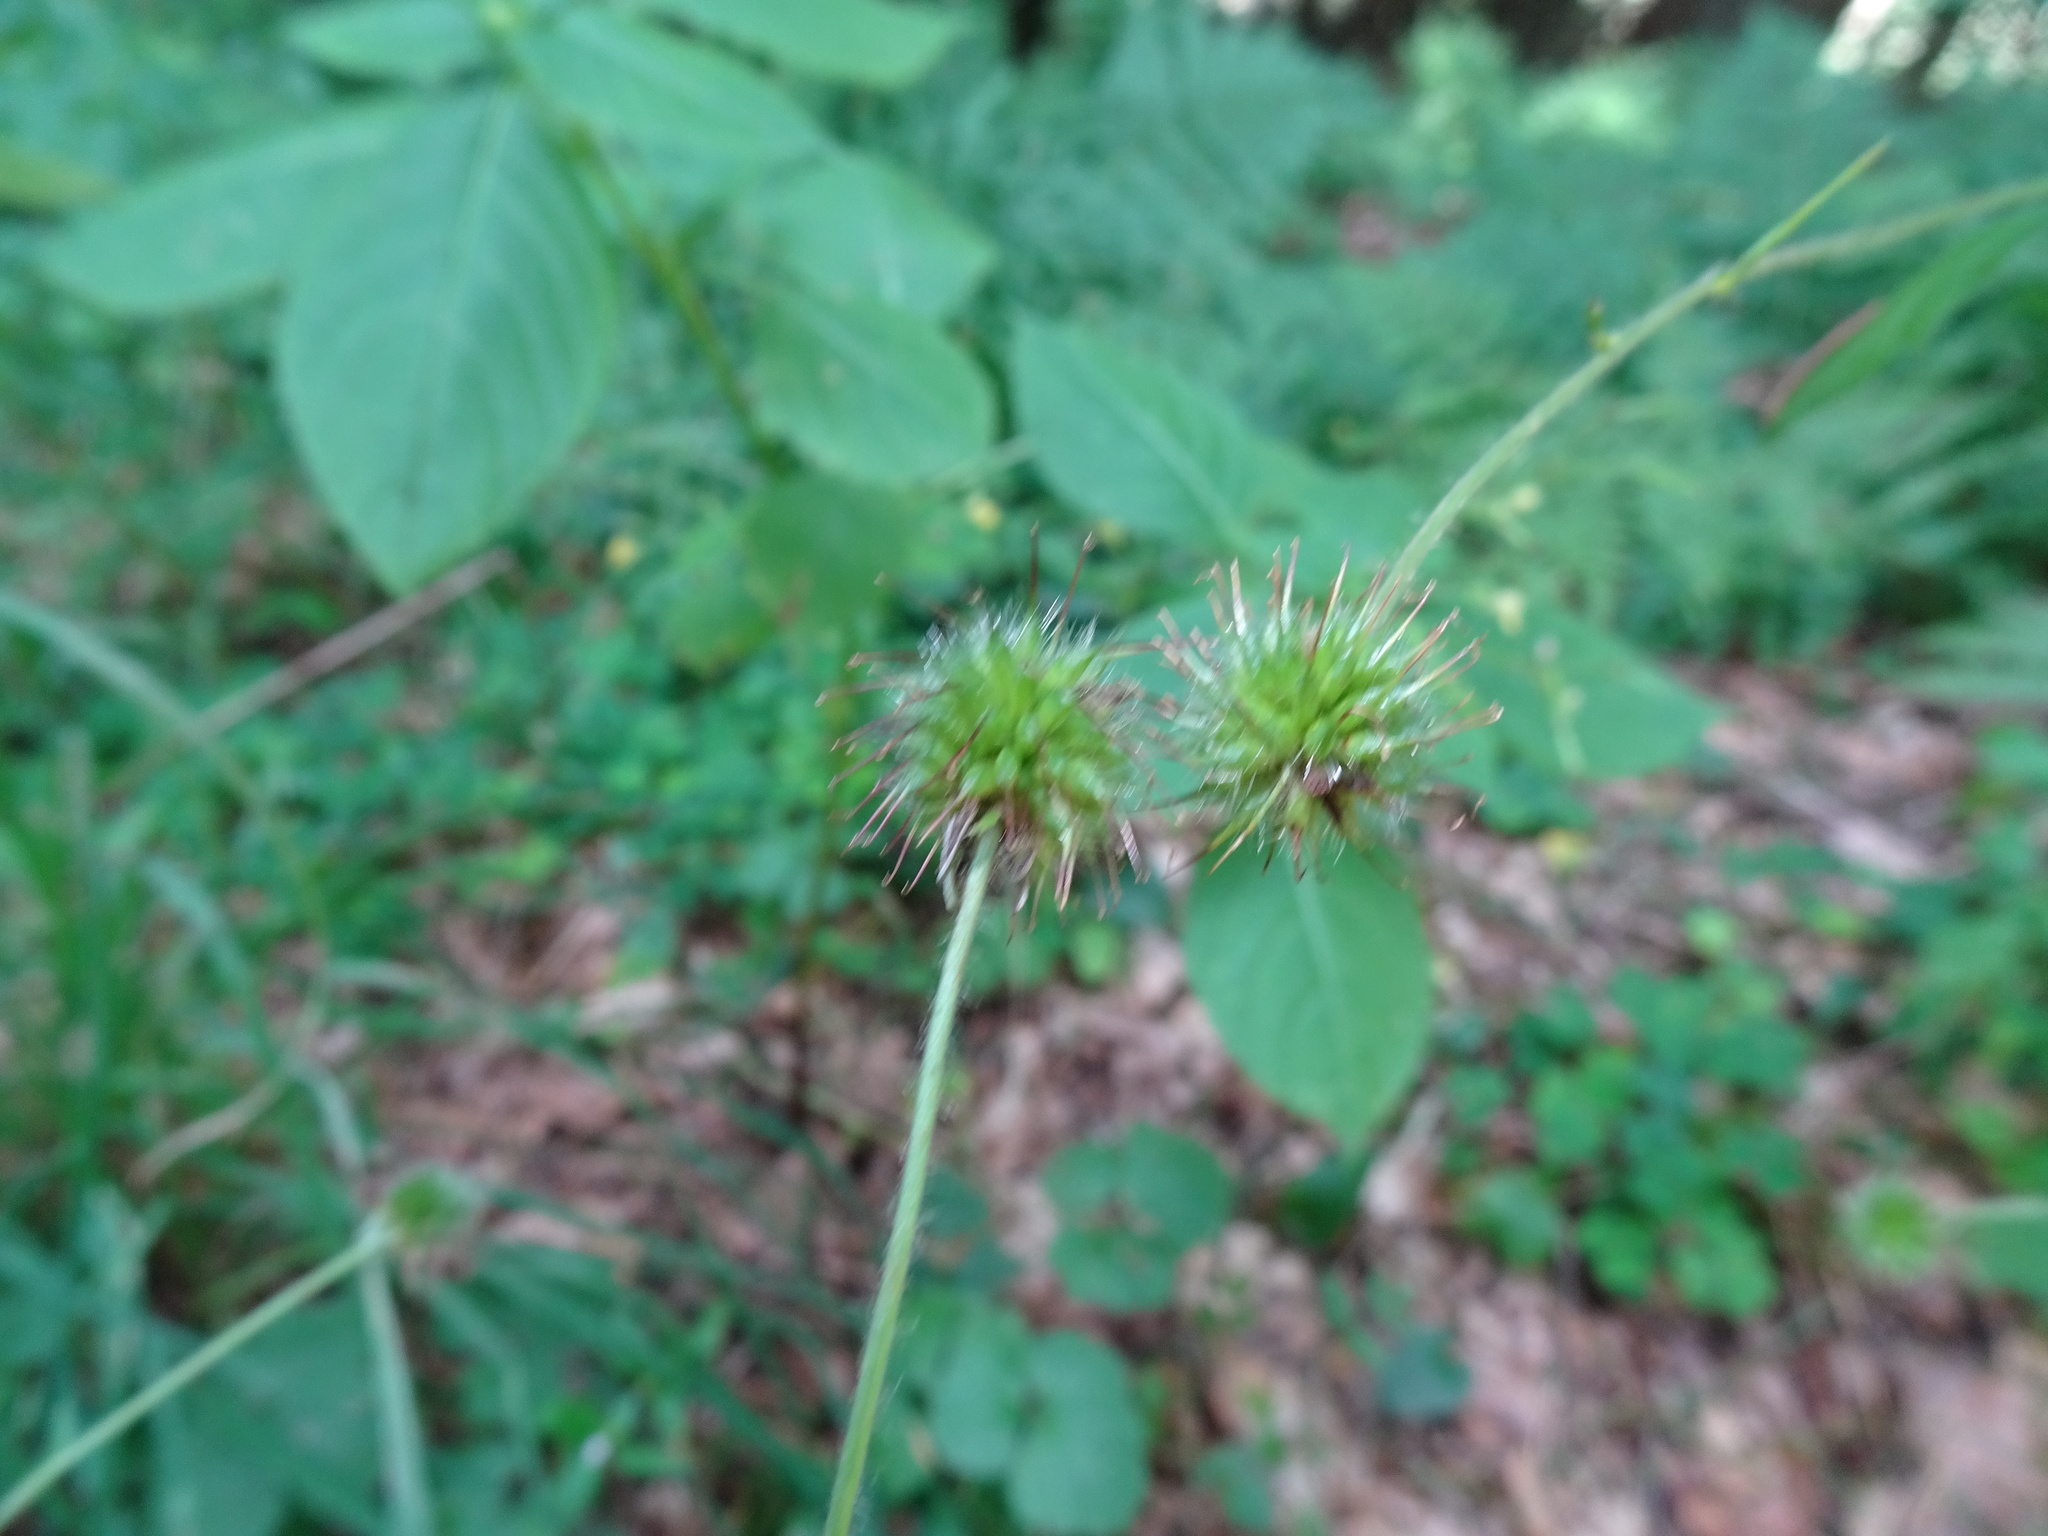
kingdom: Plantae
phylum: Tracheophyta
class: Magnoliopsida
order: Rosales
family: Rosaceae
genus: Geum
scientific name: Geum urbanum
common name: Wood avens
